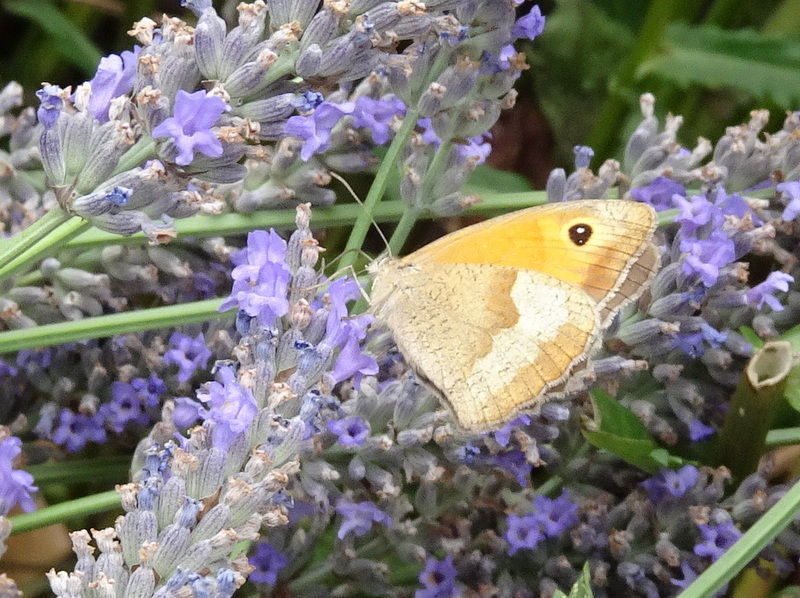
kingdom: Animalia
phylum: Arthropoda
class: Insecta
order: Lepidoptera
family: Nymphalidae
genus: Maniola
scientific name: Maniola jurtina
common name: Meadow brown
